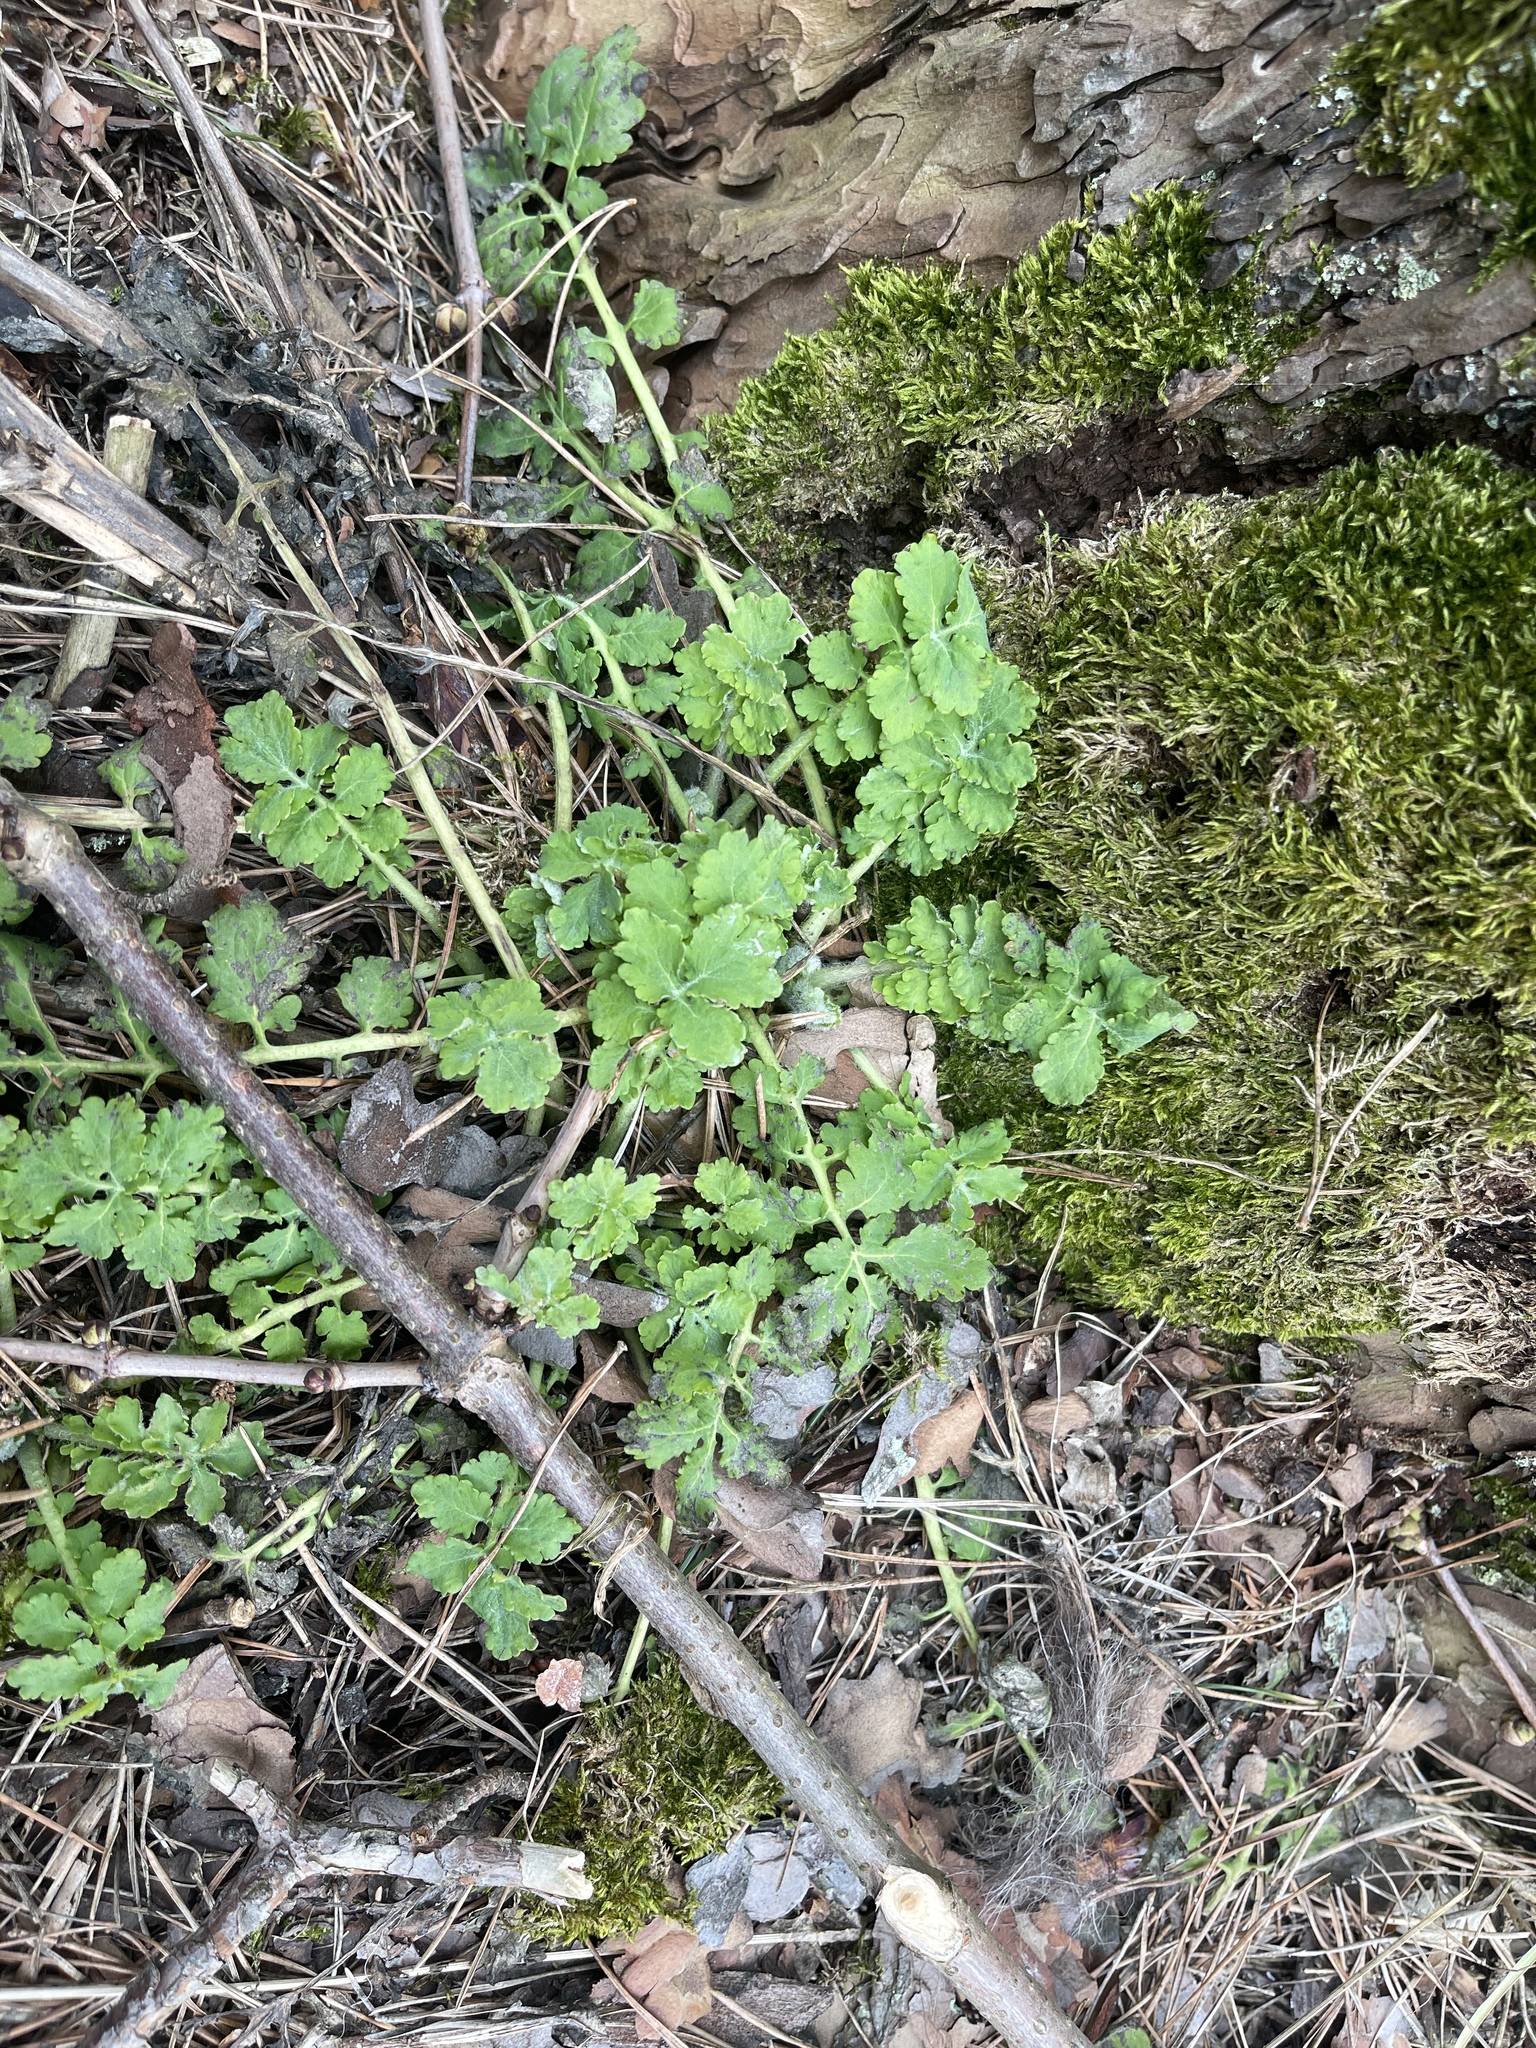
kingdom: Plantae
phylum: Tracheophyta
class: Magnoliopsida
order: Ranunculales
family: Papaveraceae
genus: Chelidonium
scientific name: Chelidonium majus
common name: Greater celandine
